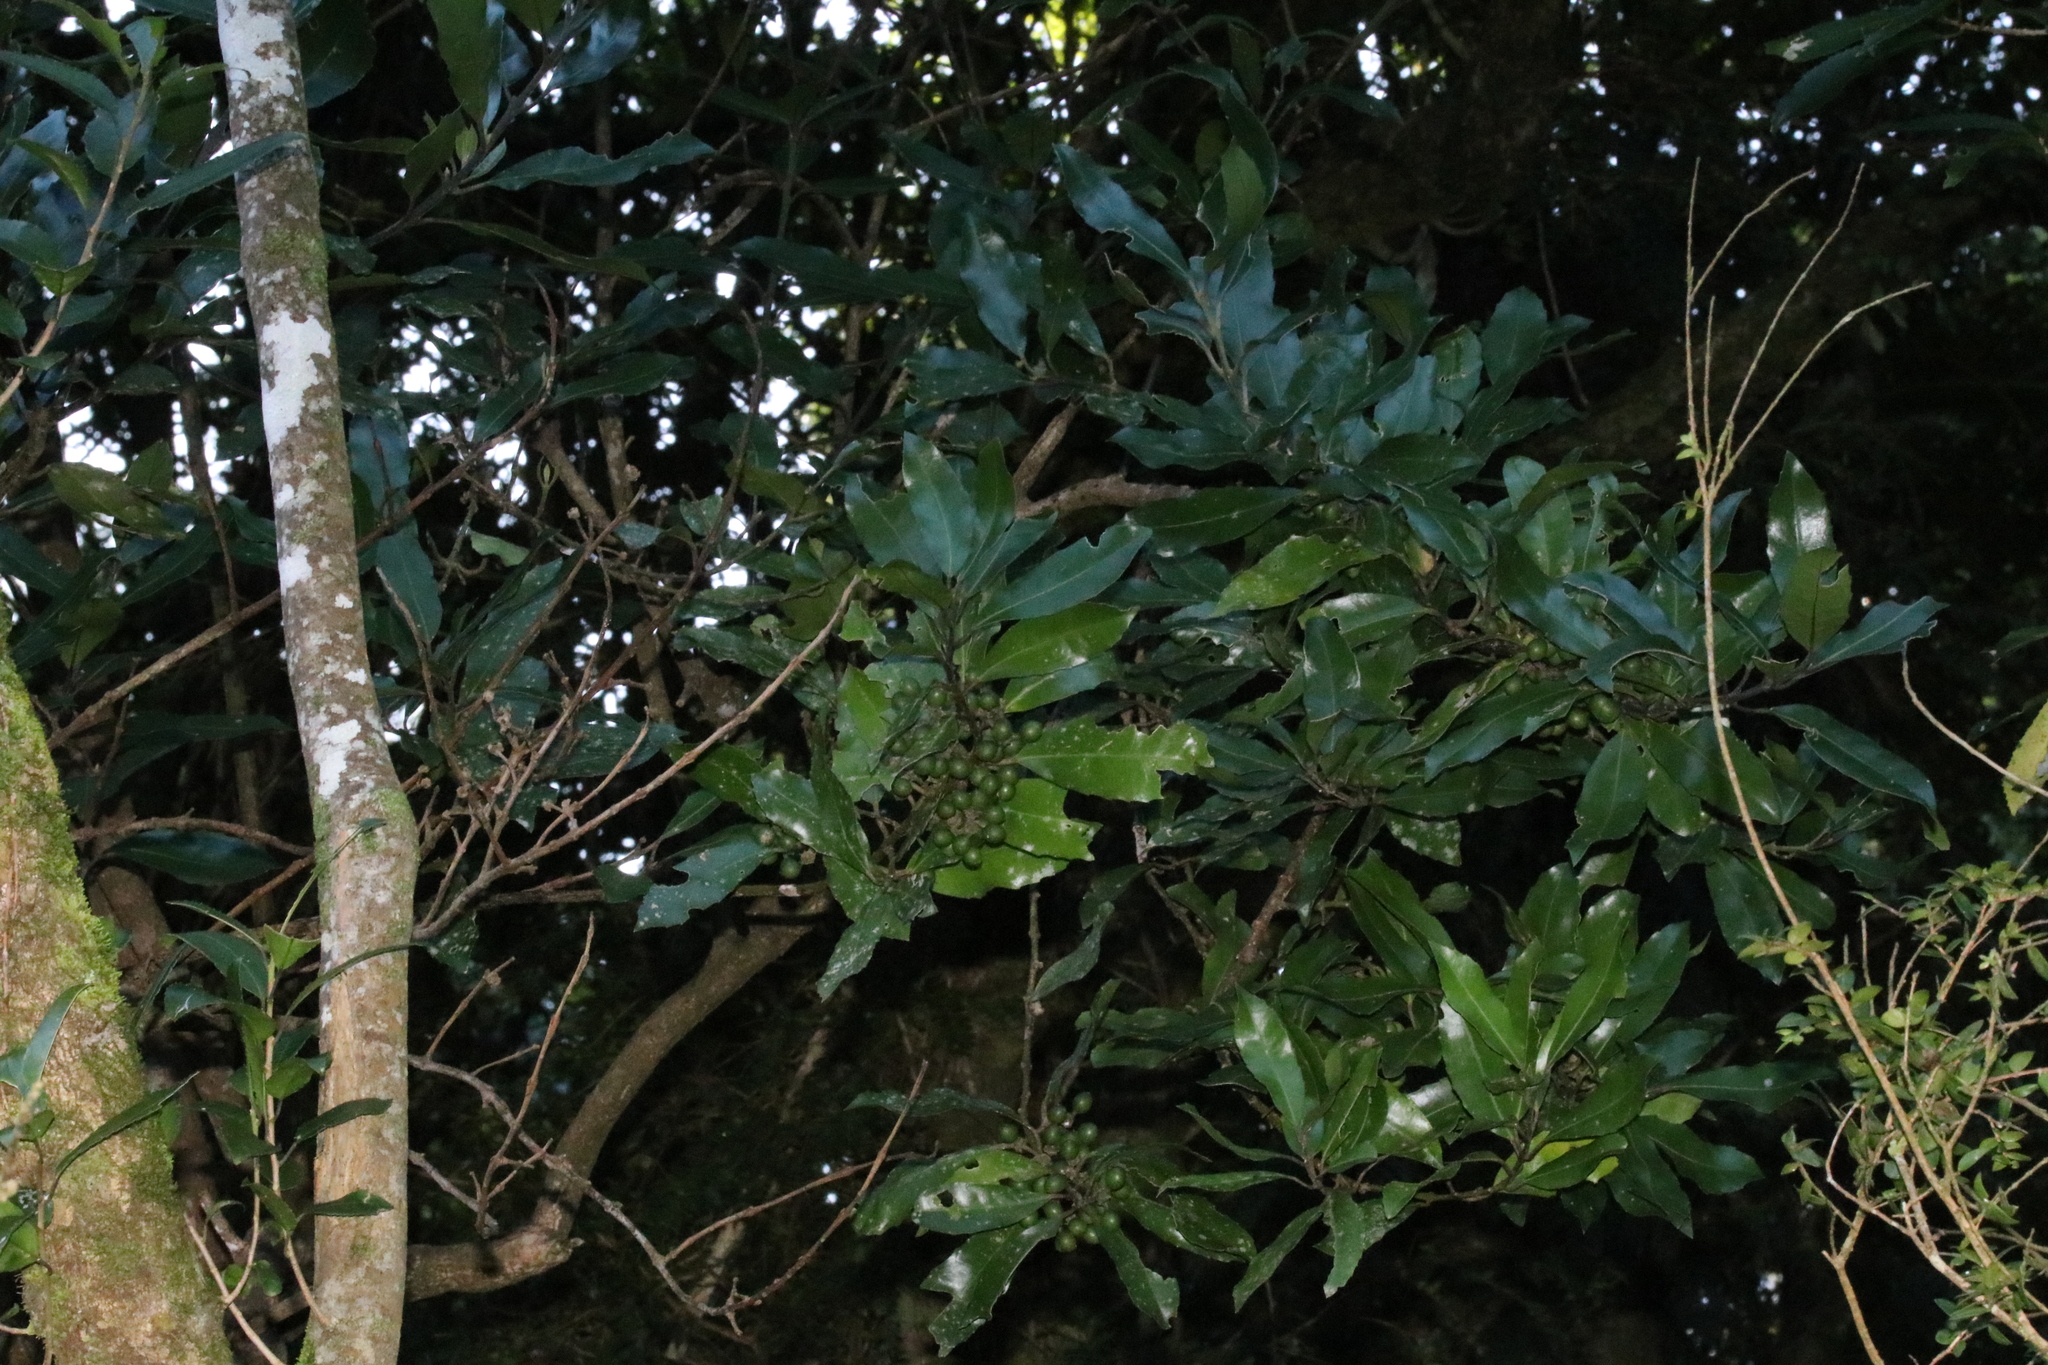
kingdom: Plantae
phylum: Tracheophyta
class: Magnoliopsida
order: Laurales
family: Monimiaceae
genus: Hedycarya
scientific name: Hedycarya arborea
